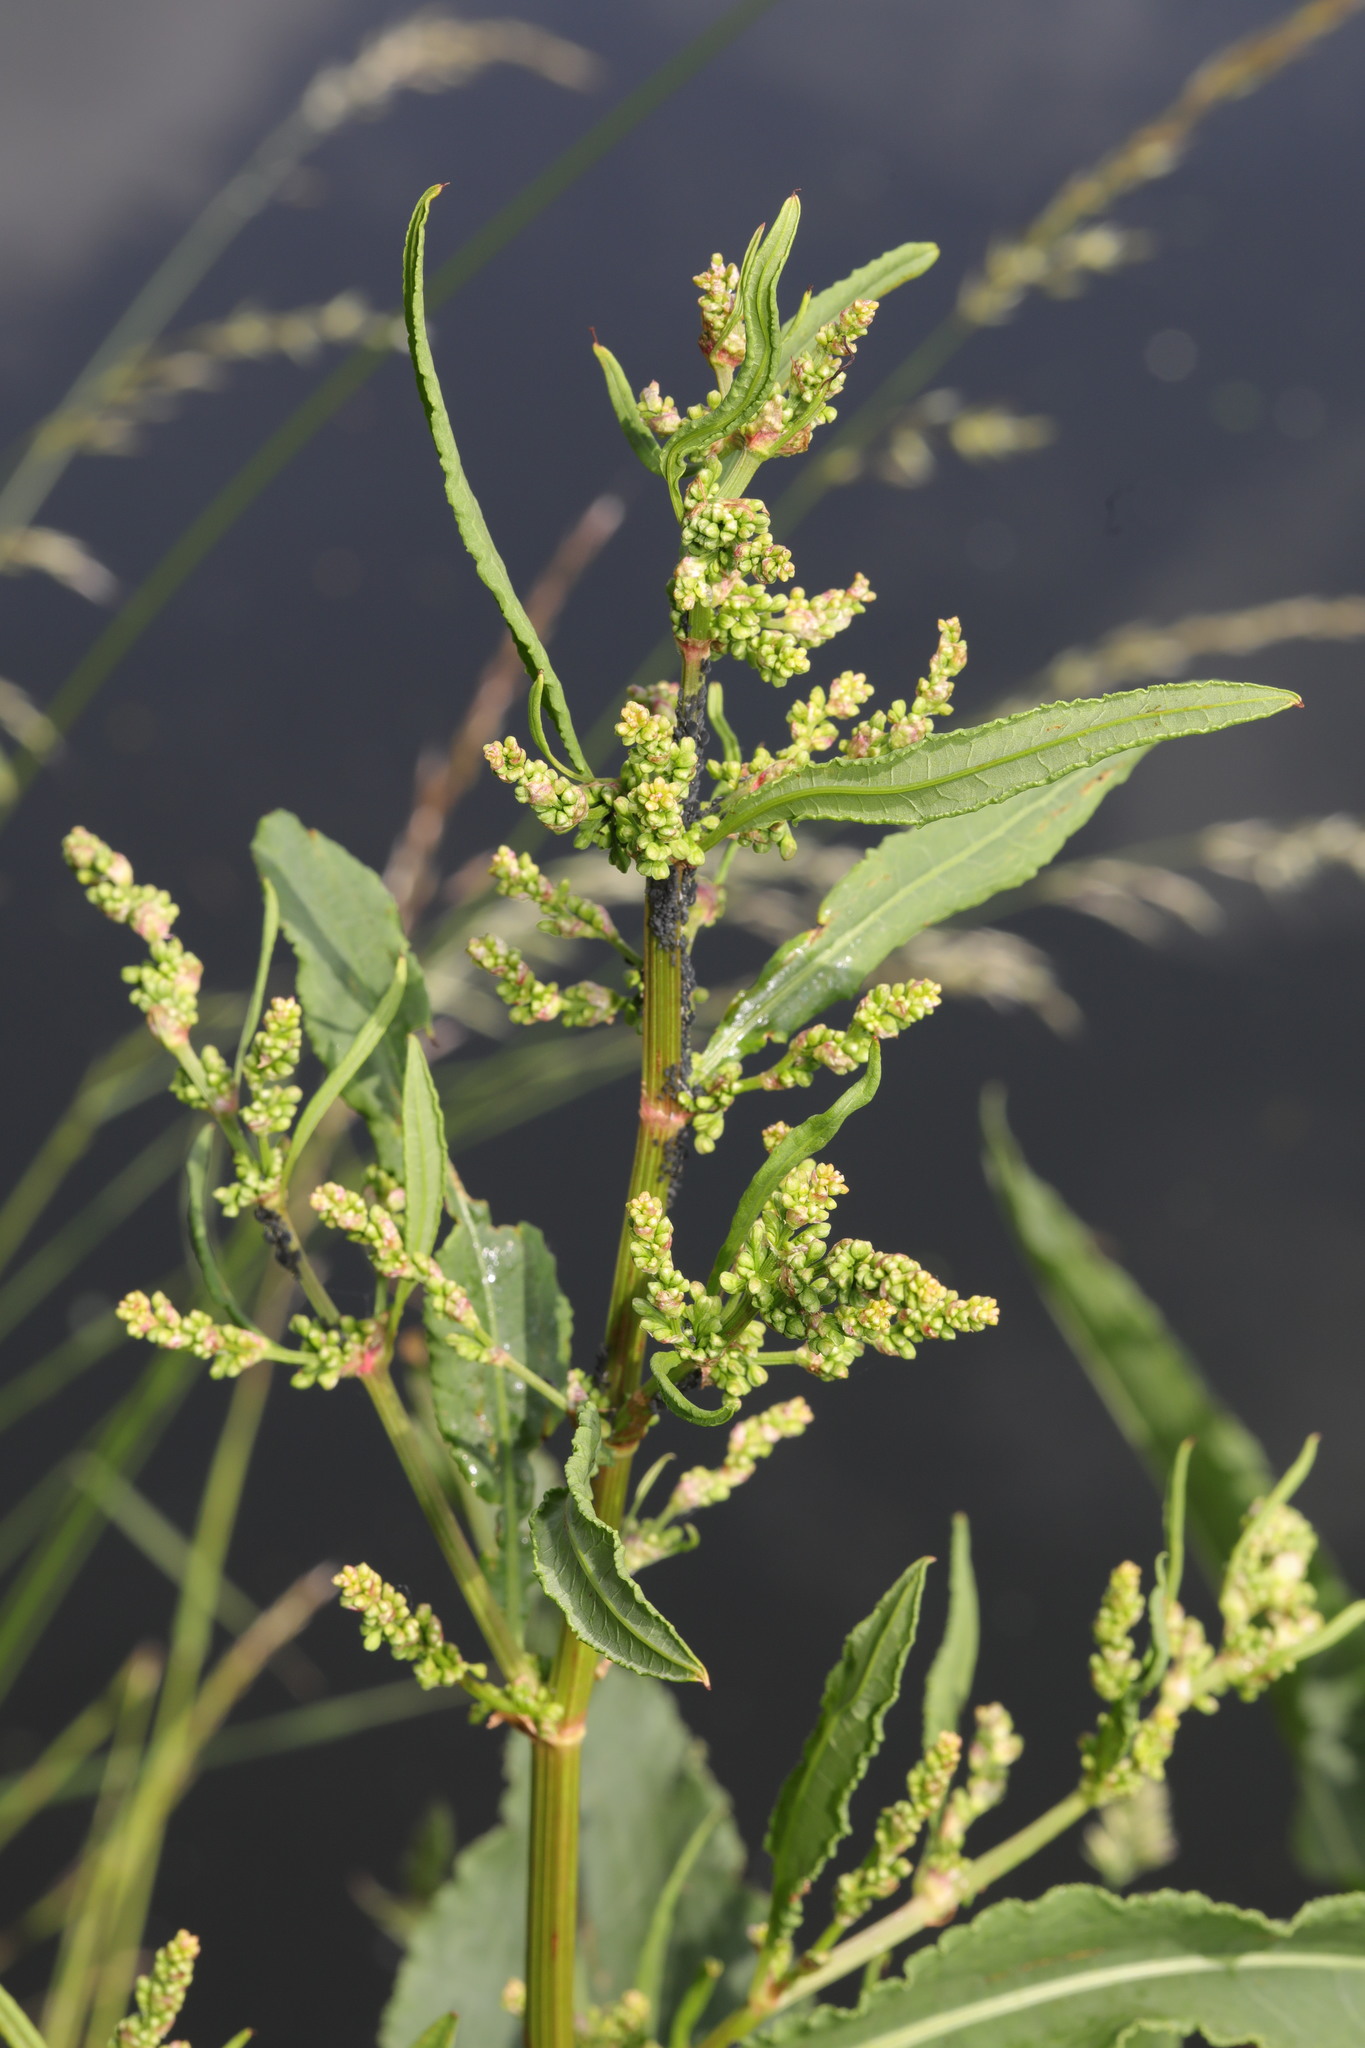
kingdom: Plantae
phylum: Tracheophyta
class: Magnoliopsida
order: Caryophyllales
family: Polygonaceae
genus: Rumex
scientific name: Rumex hydrolapathum
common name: Water dock
